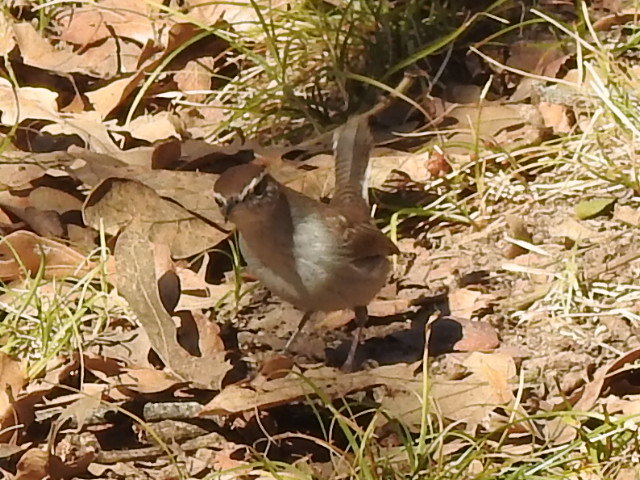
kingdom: Animalia
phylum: Chordata
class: Aves
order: Passeriformes
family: Troglodytidae
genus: Thryomanes
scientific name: Thryomanes bewickii
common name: Bewick's wren
